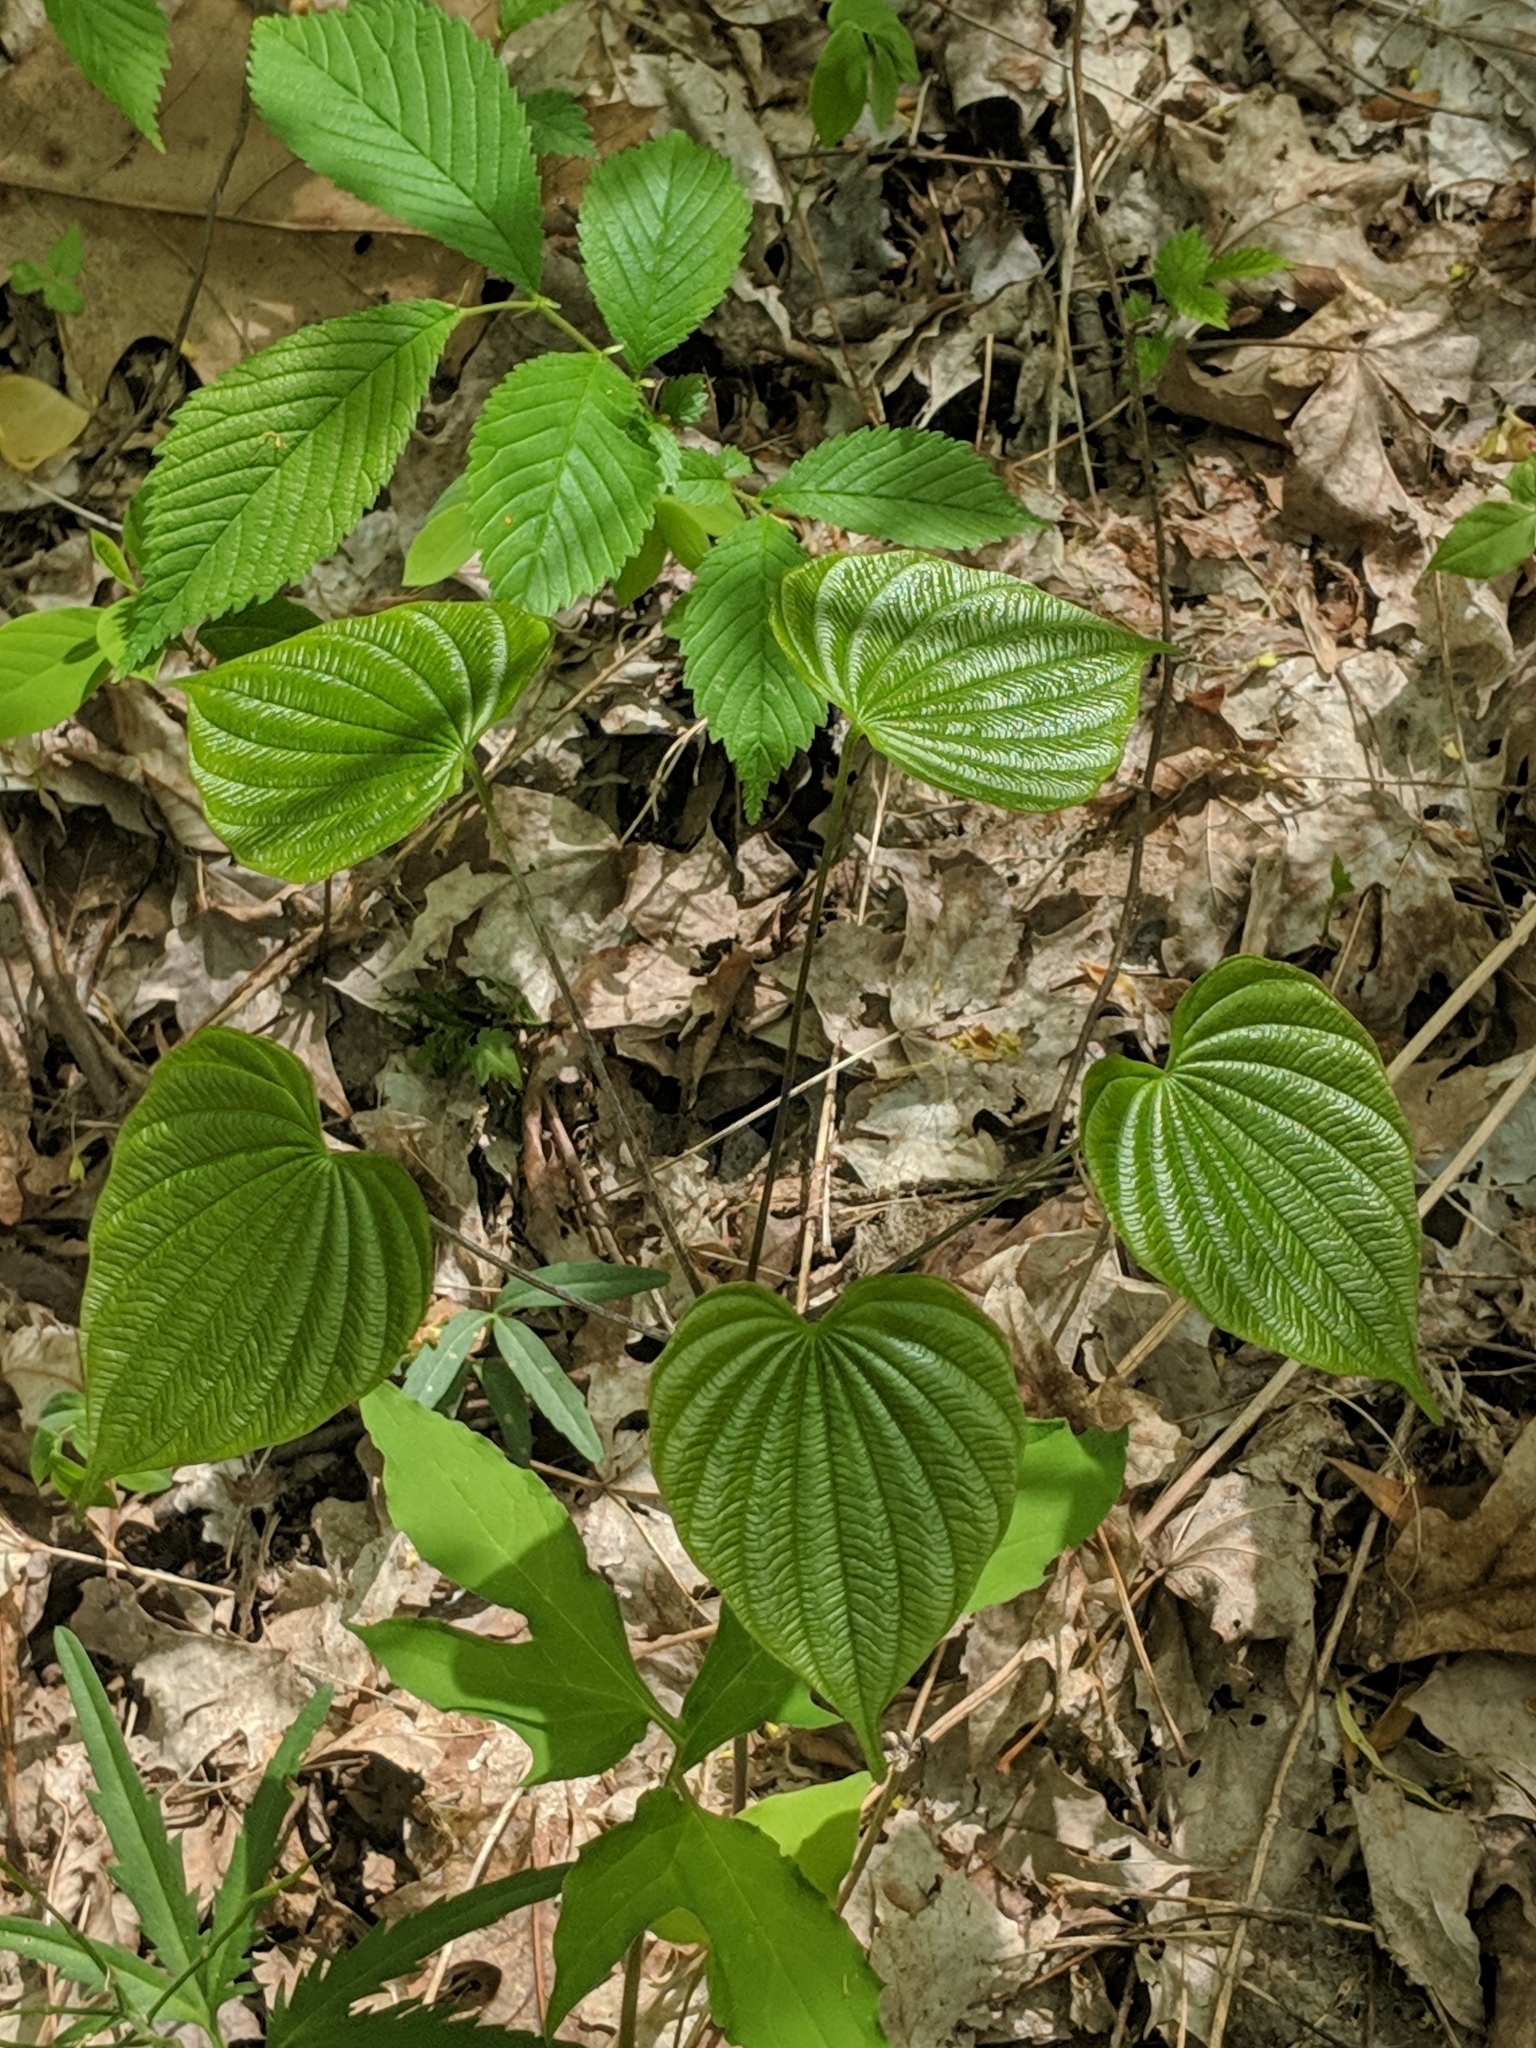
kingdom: Plantae
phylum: Tracheophyta
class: Liliopsida
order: Dioscoreales
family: Dioscoreaceae
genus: Dioscorea
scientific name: Dioscorea villosa
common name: Wild yam
